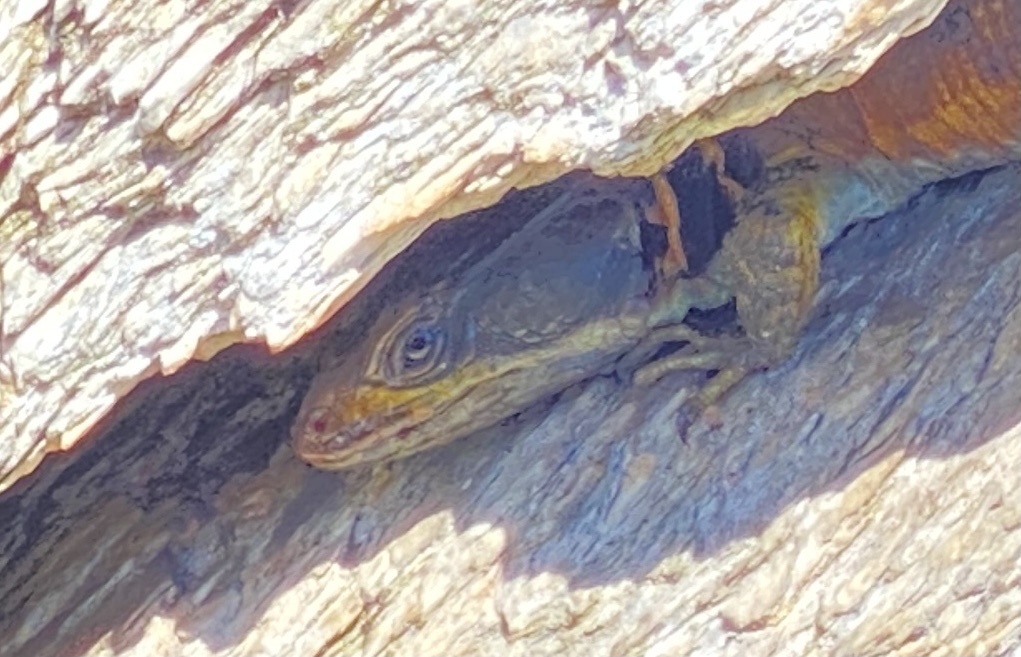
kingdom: Animalia
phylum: Chordata
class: Squamata
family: Cordylidae
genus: Pseudocordylus
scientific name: Pseudocordylus microlepidotus
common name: Cape crag lizard
